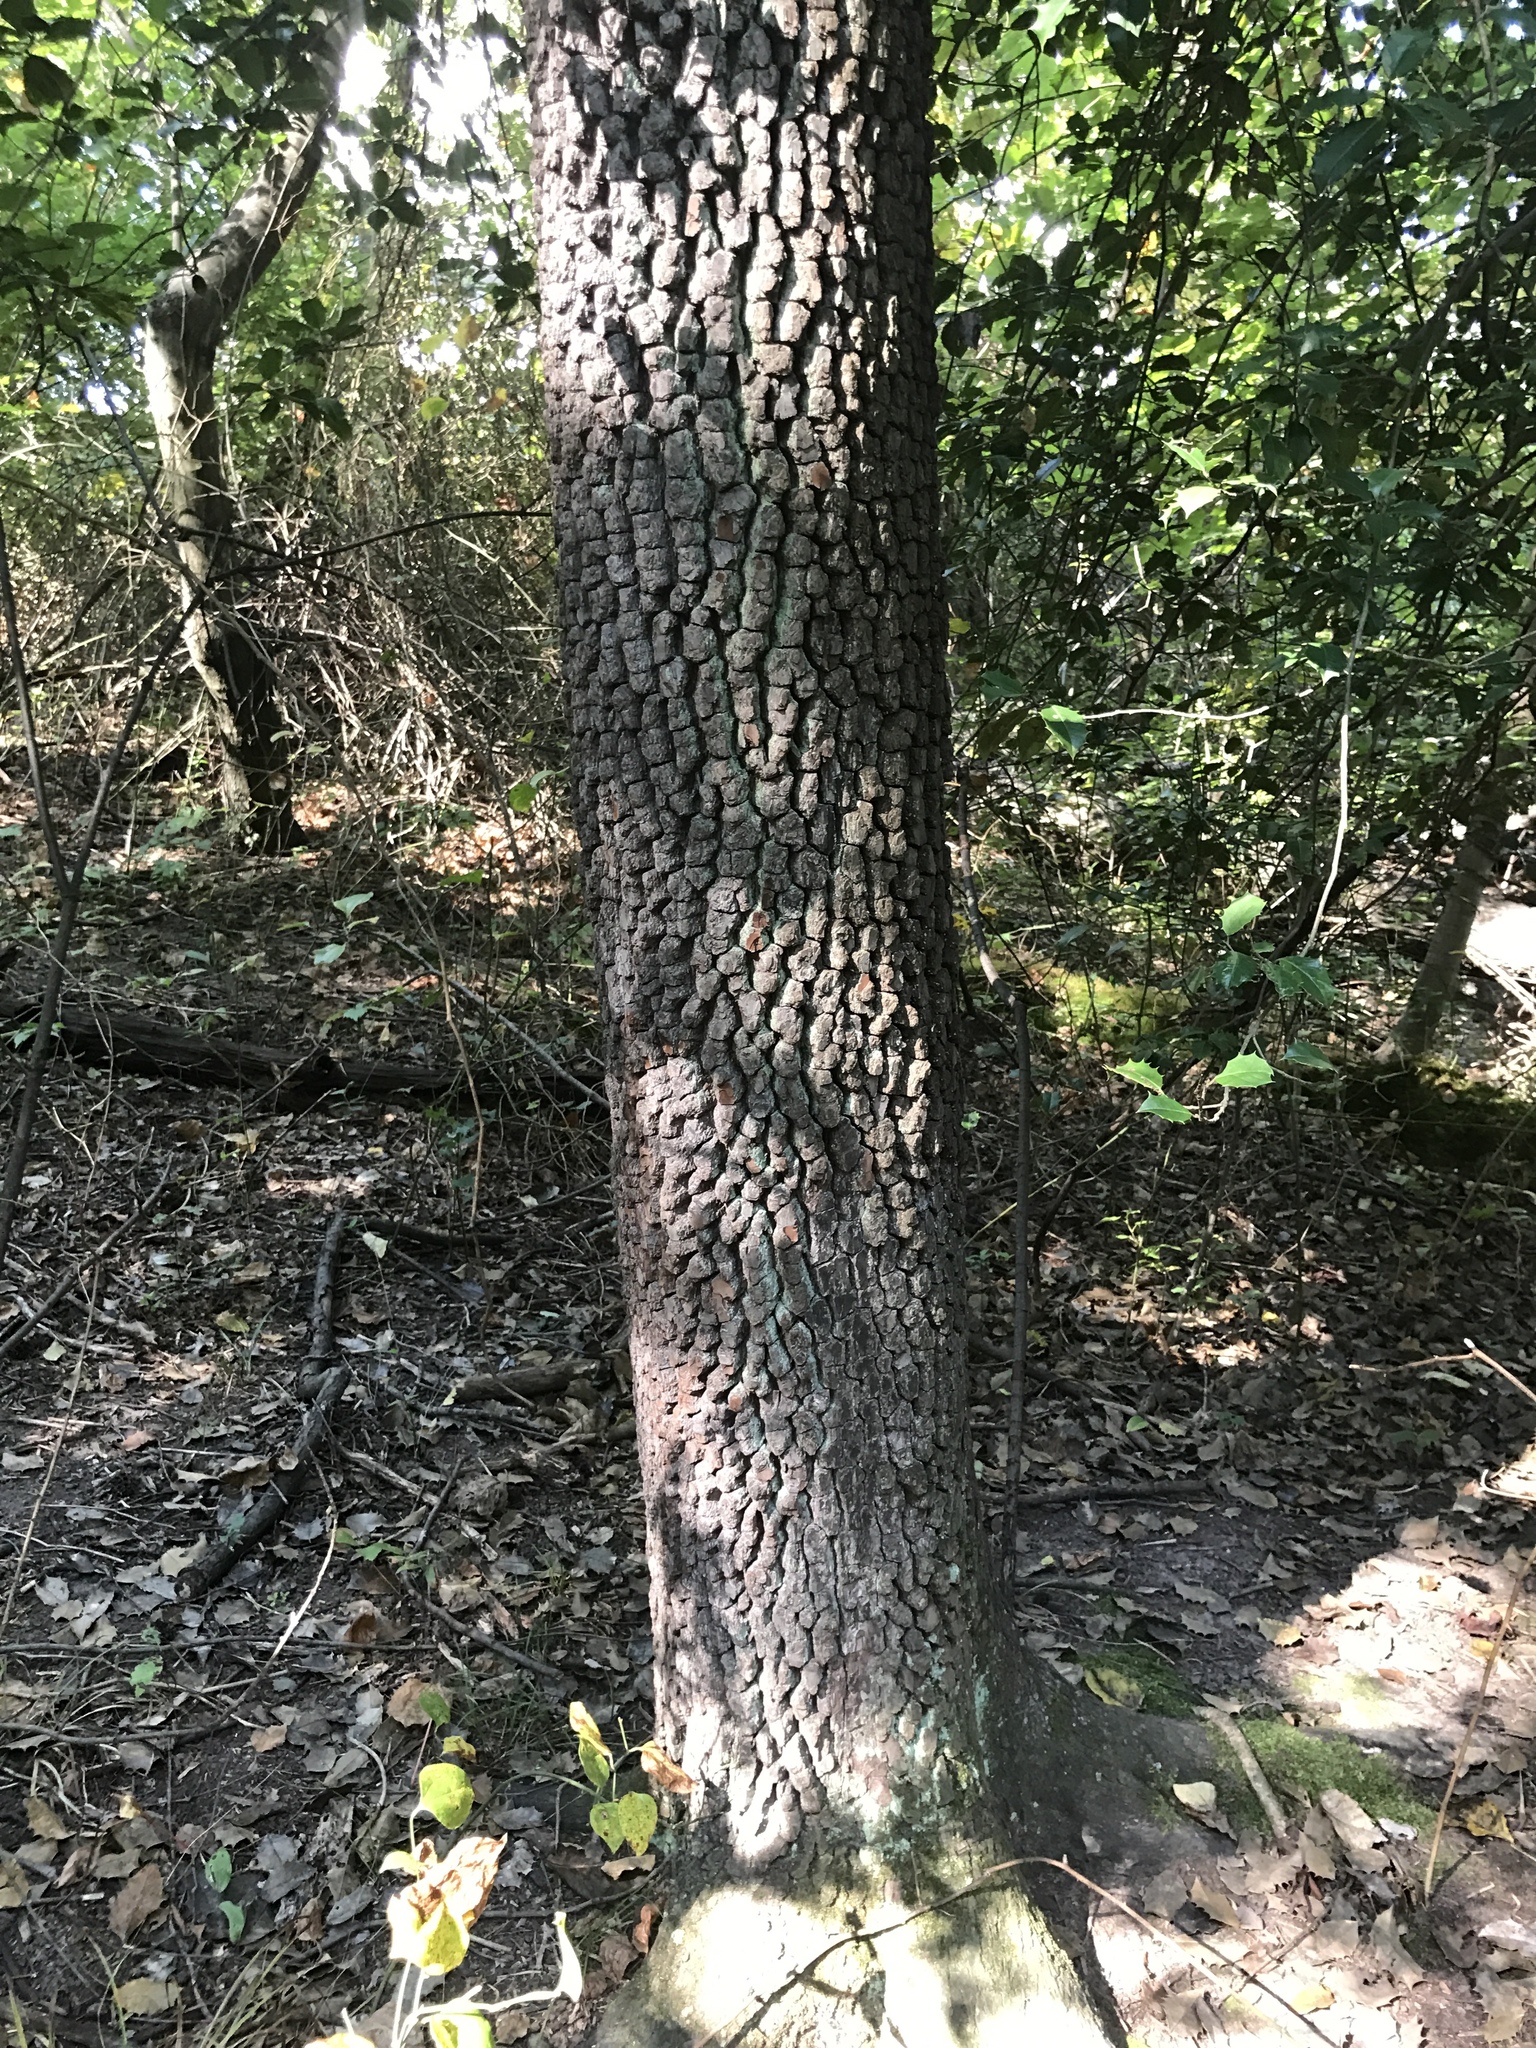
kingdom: Plantae
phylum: Tracheophyta
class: Magnoliopsida
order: Ericales
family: Ebenaceae
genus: Diospyros
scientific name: Diospyros virginiana
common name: Persimmon
